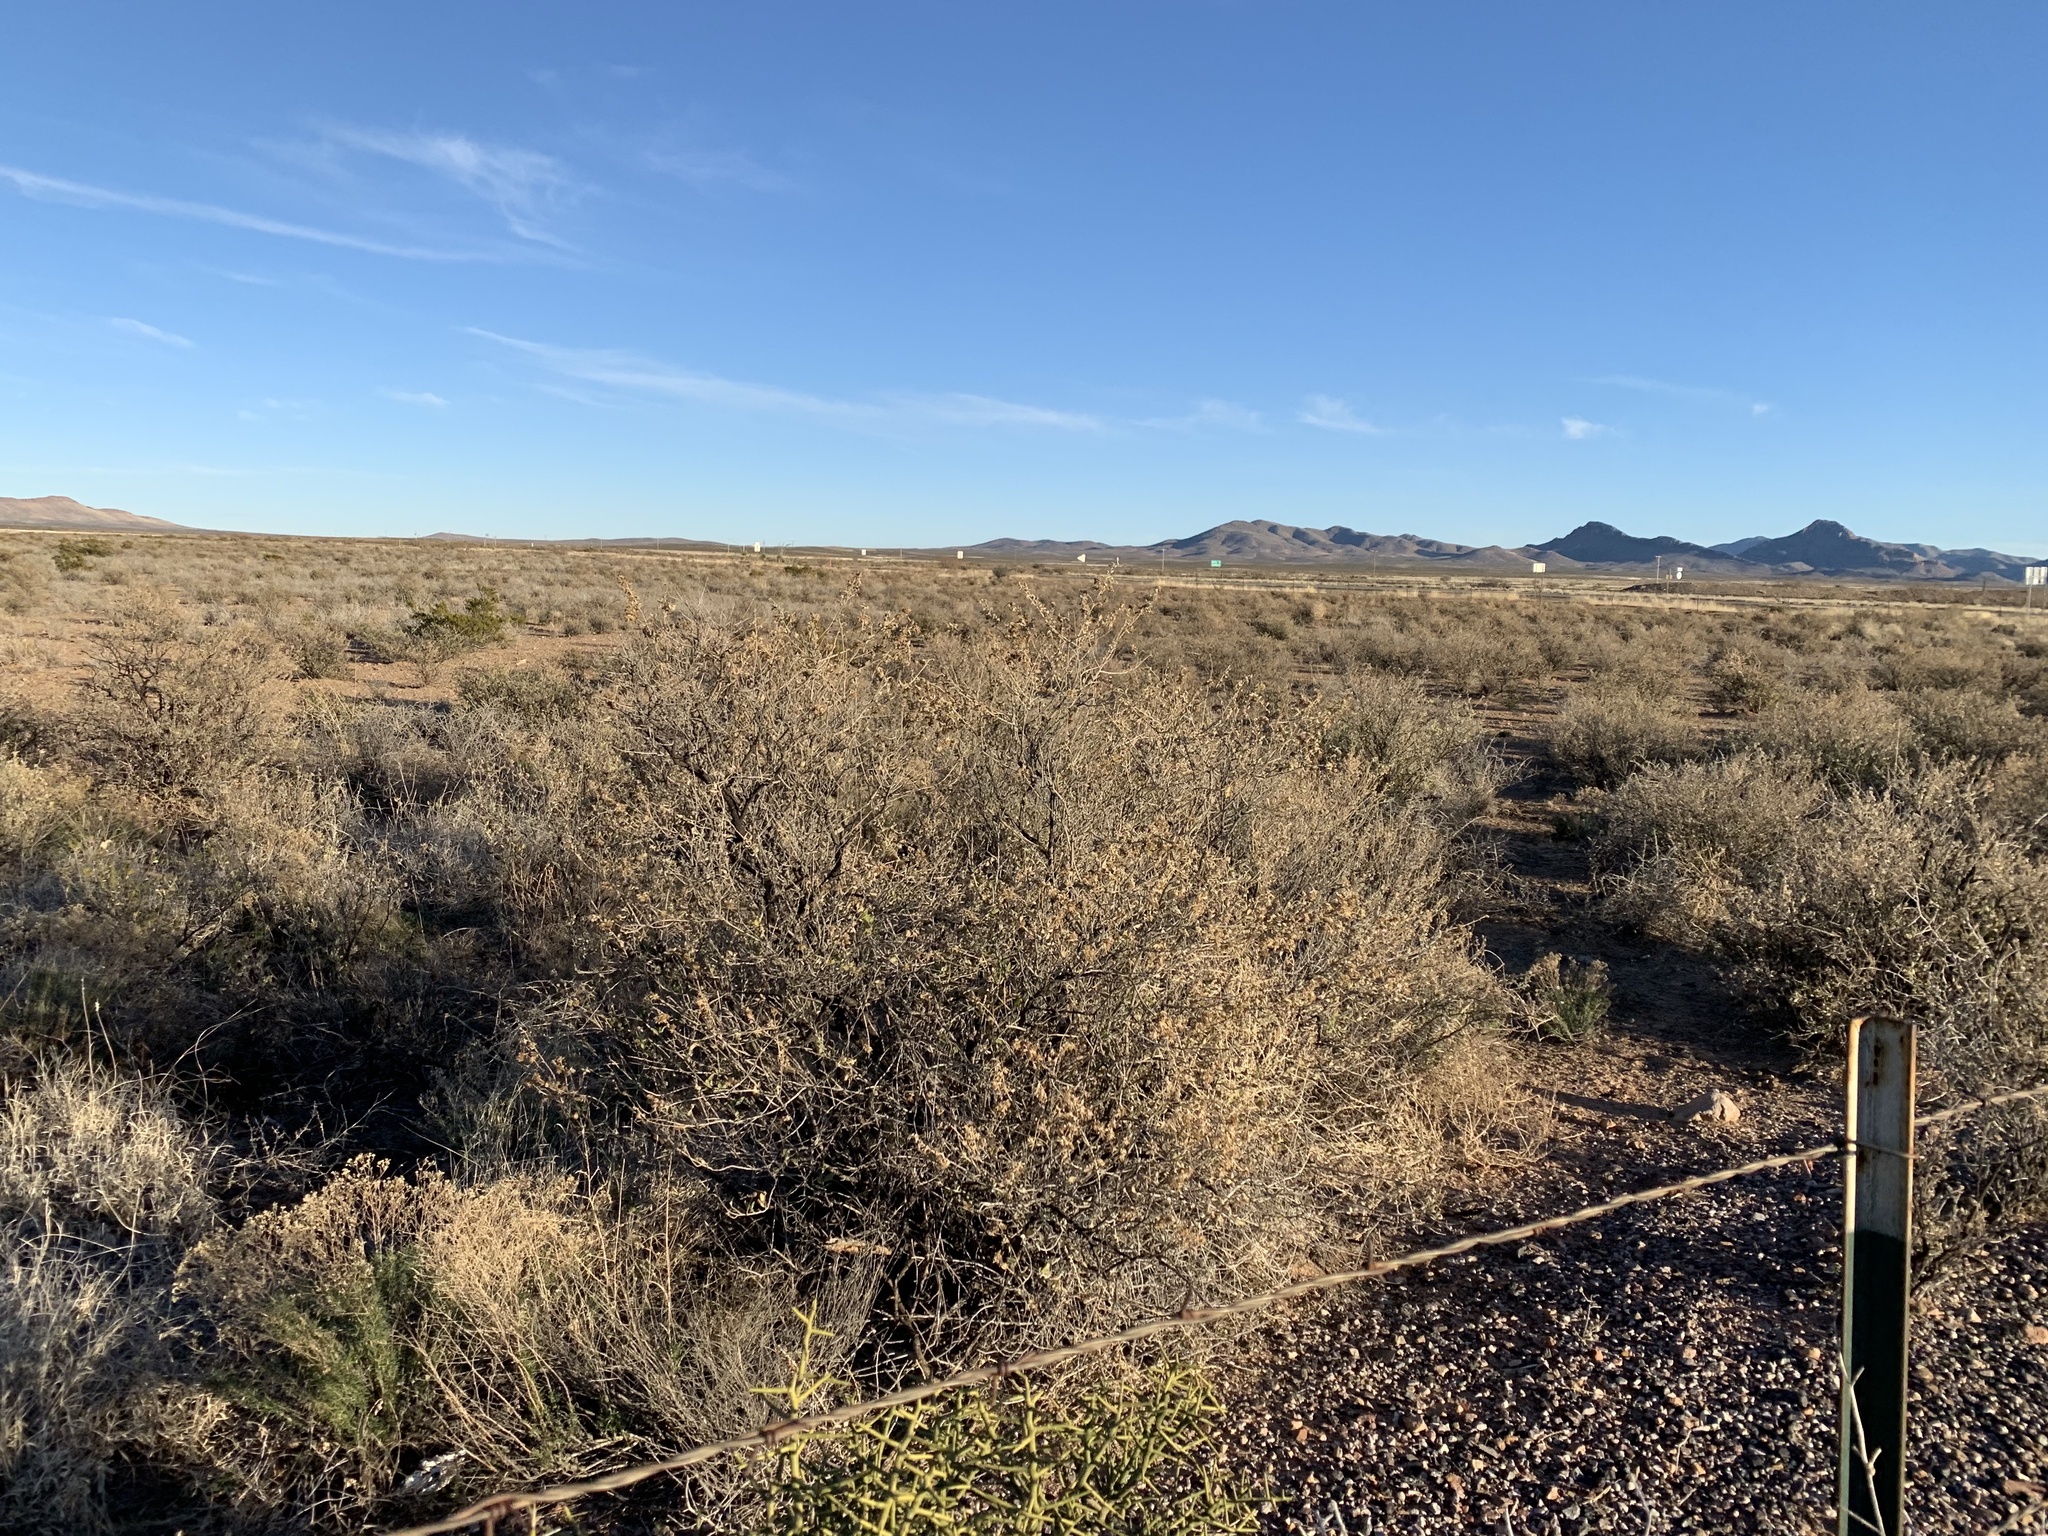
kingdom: Plantae
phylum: Tracheophyta
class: Magnoliopsida
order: Caryophyllales
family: Amaranthaceae
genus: Atriplex
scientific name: Atriplex canescens
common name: Four-wing saltbush
